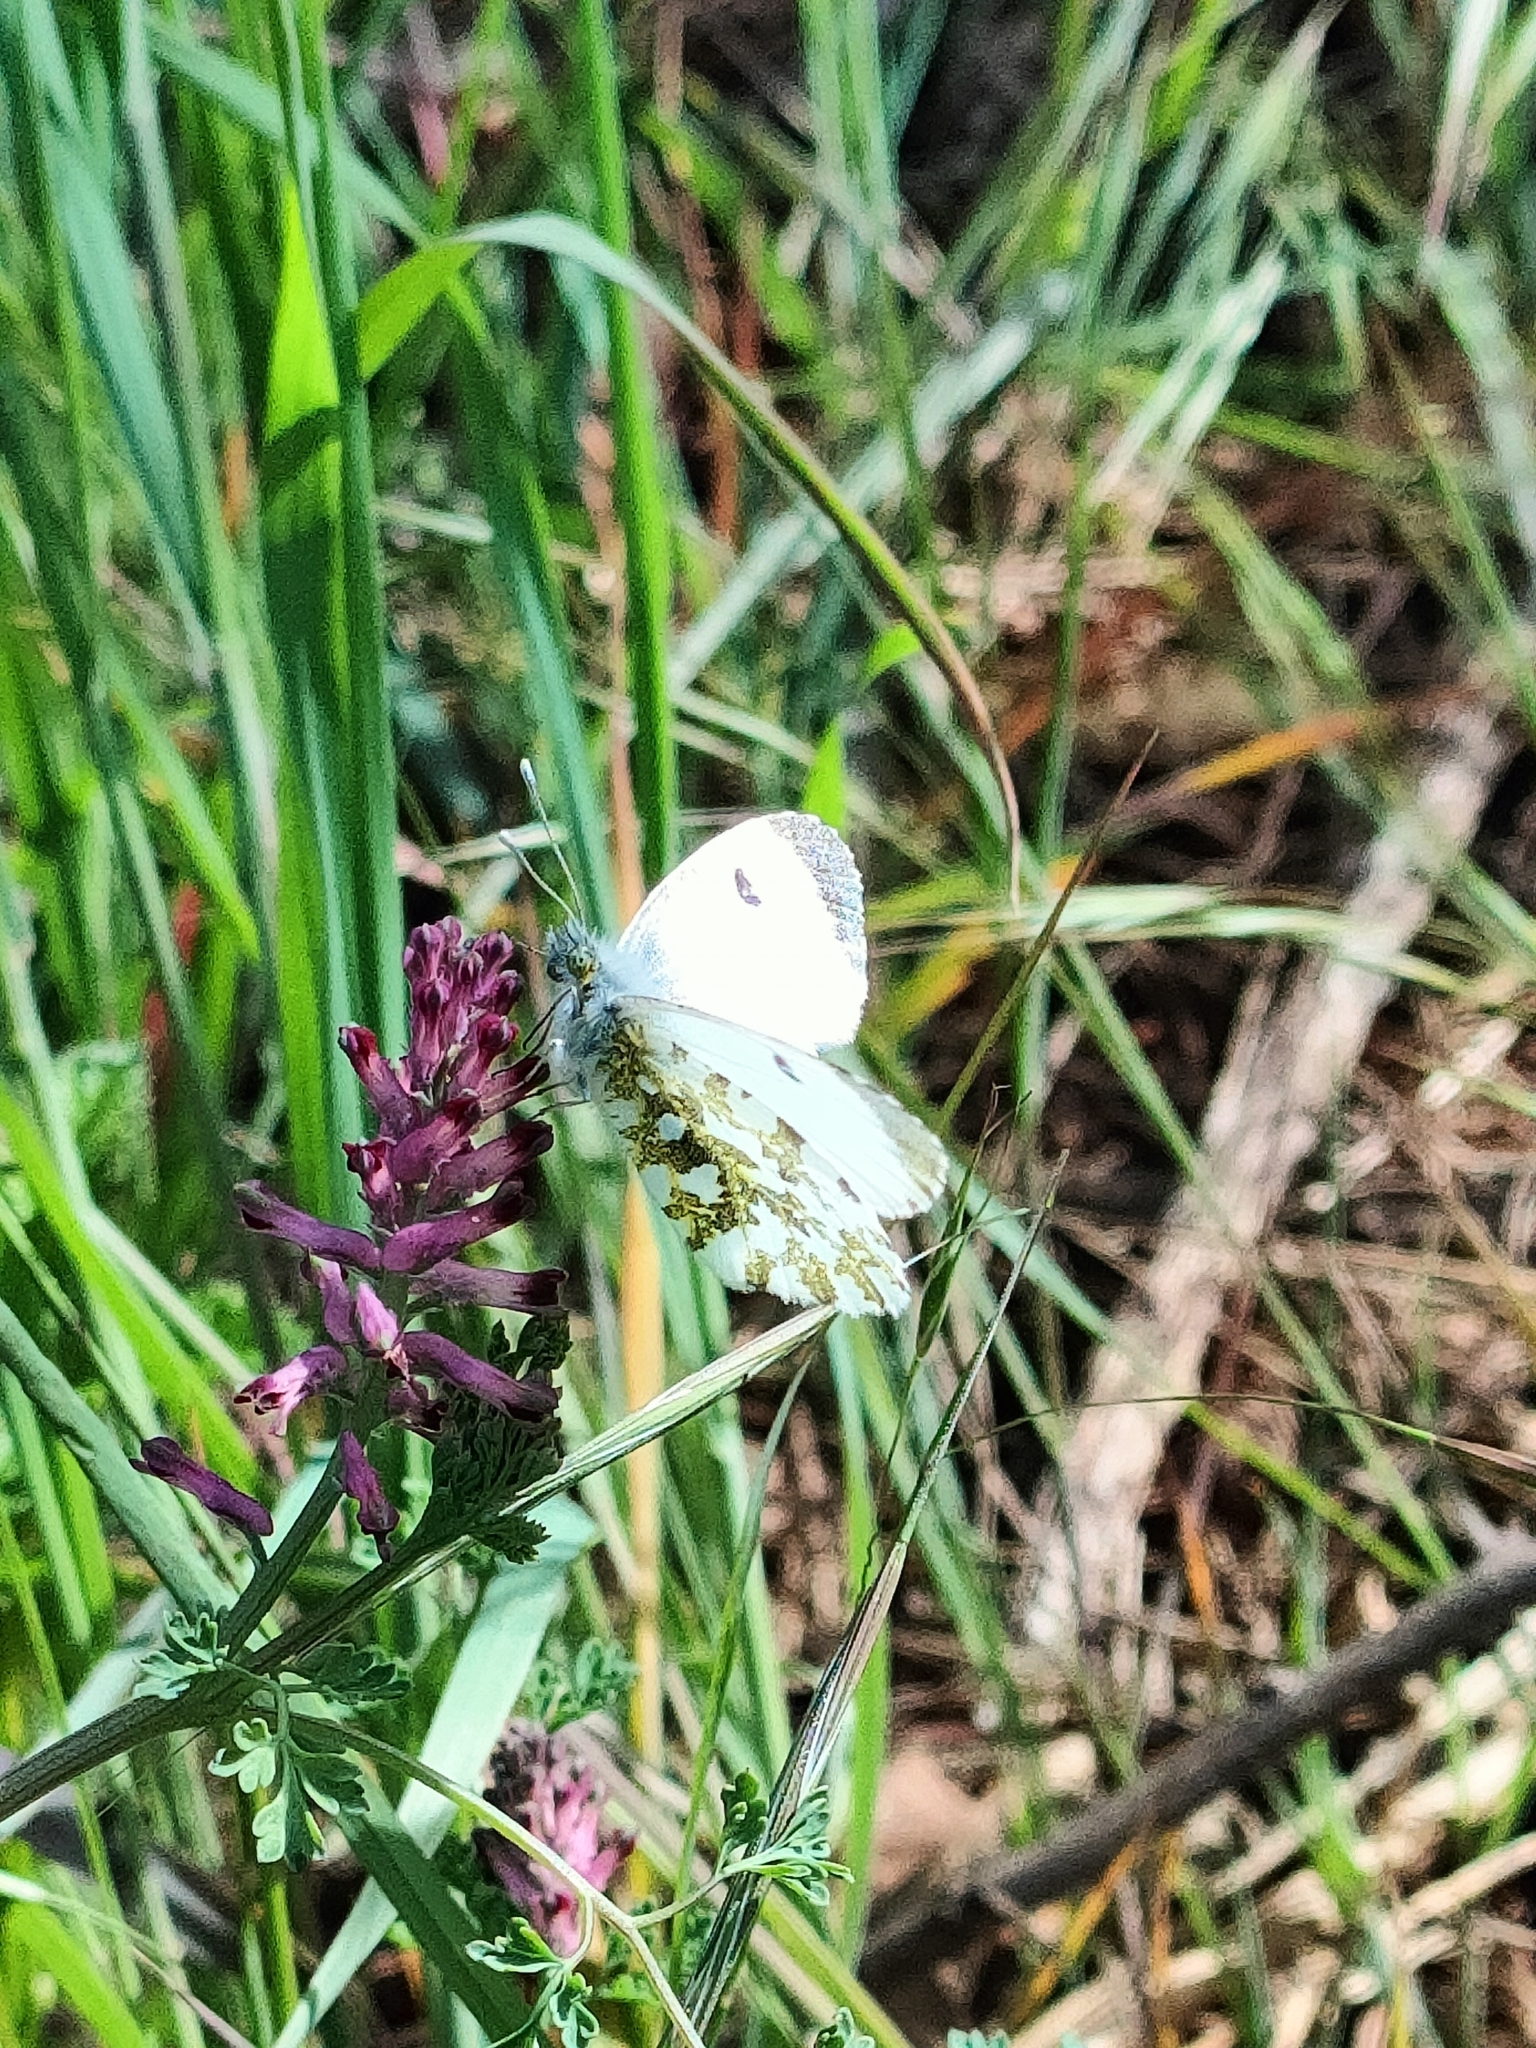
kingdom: Animalia
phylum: Arthropoda
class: Insecta
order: Lepidoptera
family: Pieridae
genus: Anthocharis
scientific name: Anthocharis cardamines
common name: Orange-tip
